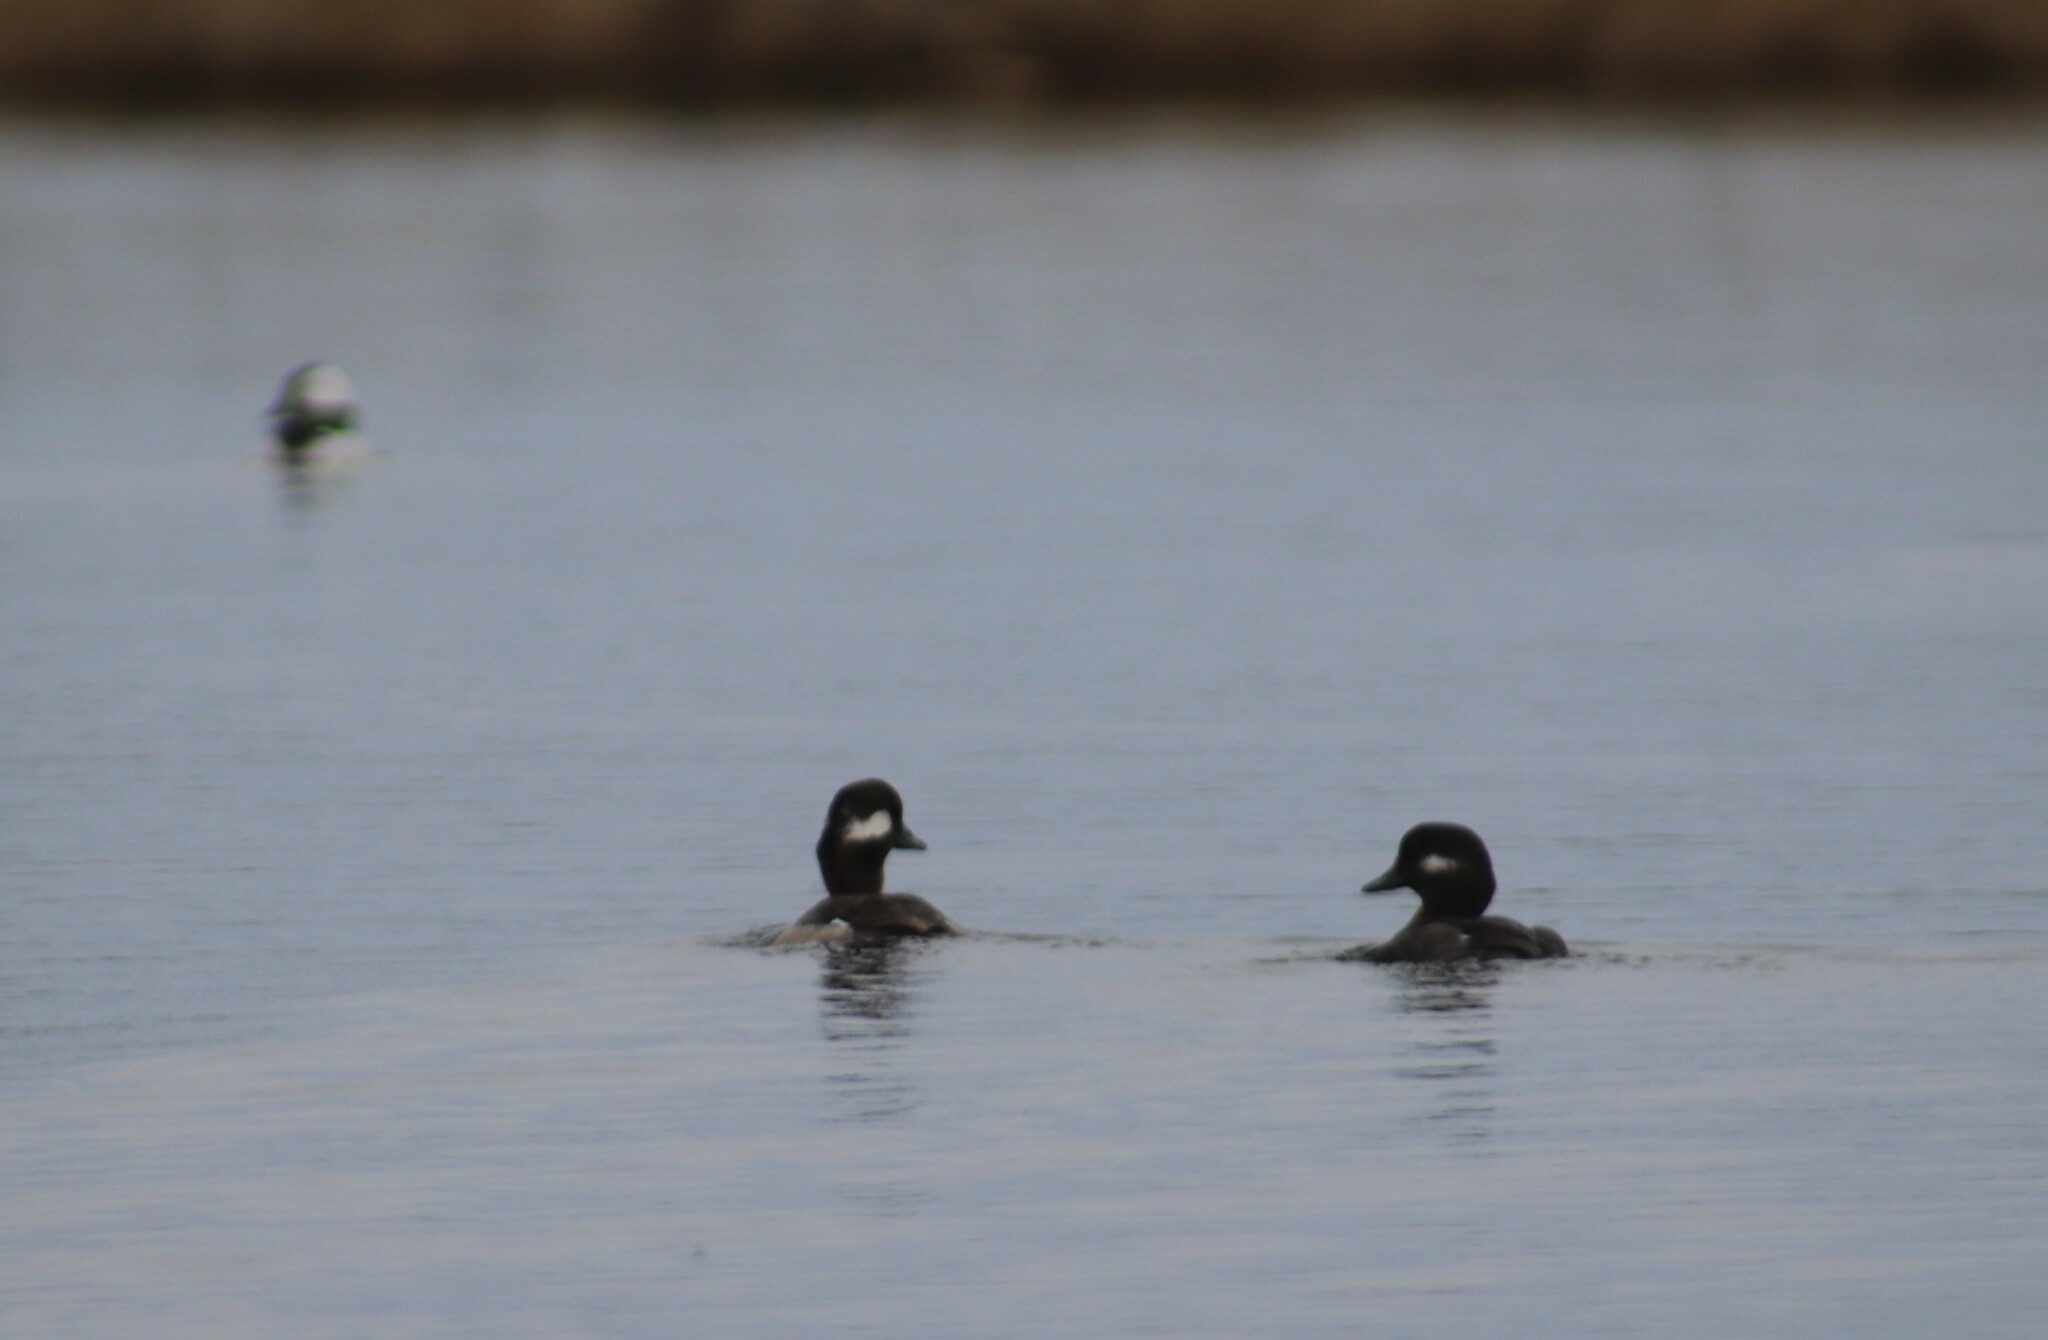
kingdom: Animalia
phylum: Chordata
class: Aves
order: Anseriformes
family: Anatidae
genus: Bucephala
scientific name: Bucephala albeola
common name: Bufflehead
